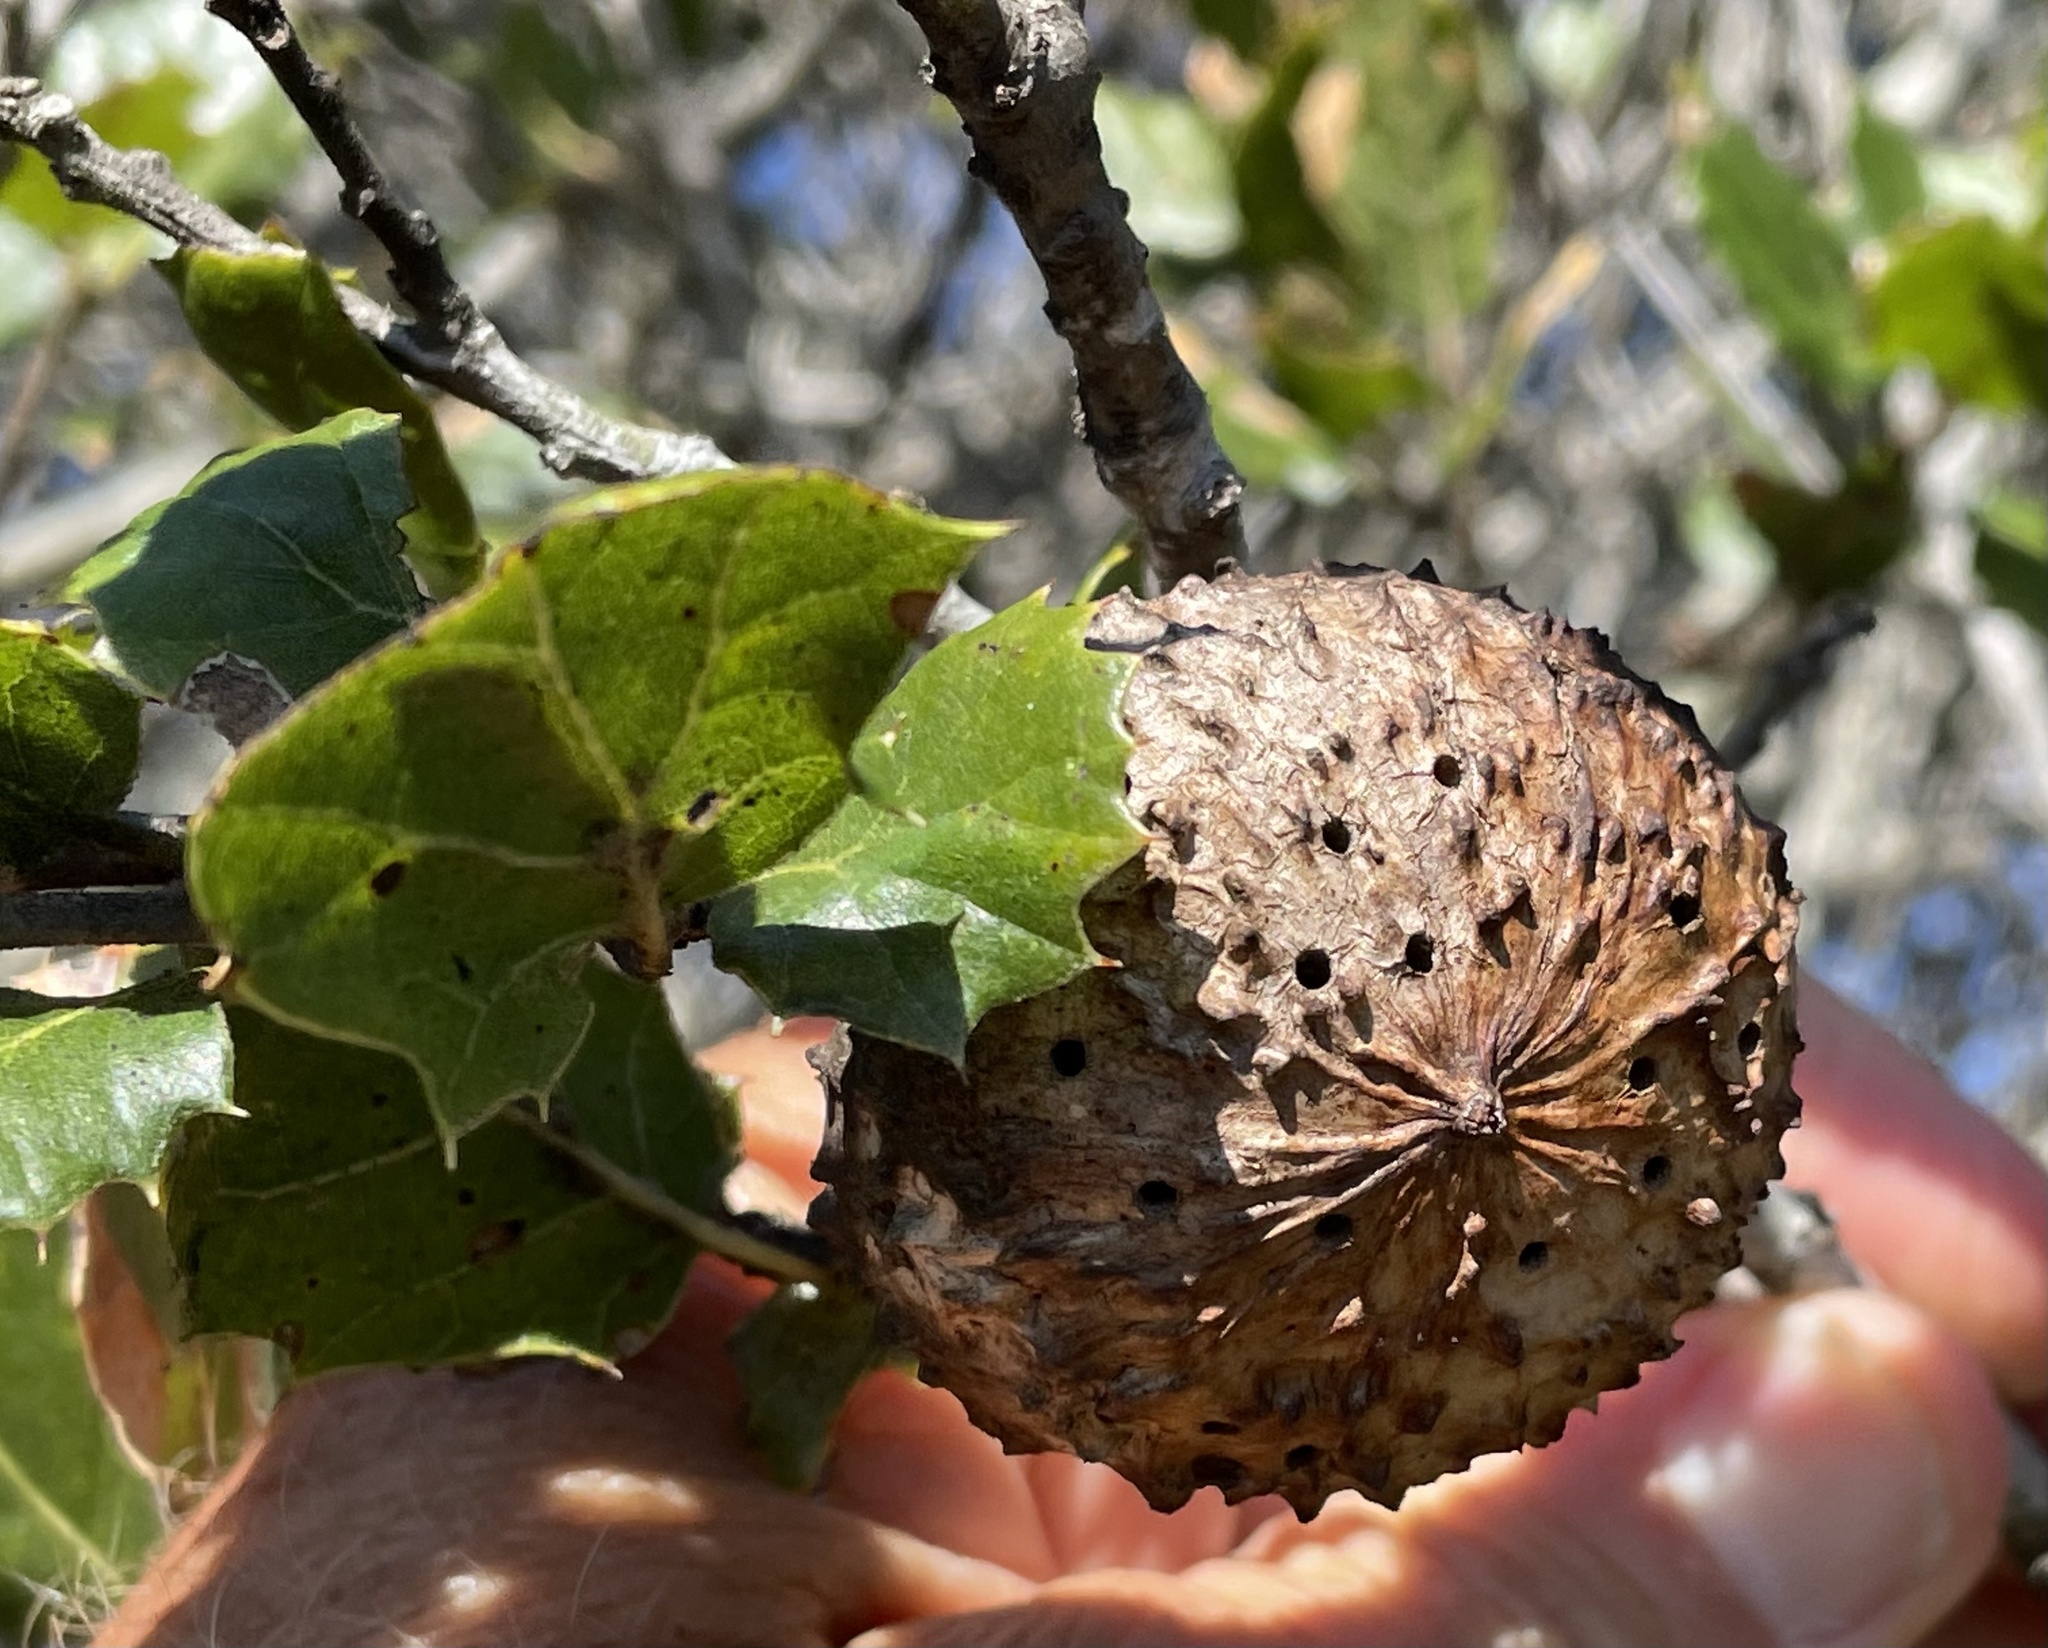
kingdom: Animalia
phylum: Arthropoda
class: Insecta
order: Hymenoptera
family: Cynipidae
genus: Amphibolips
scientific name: Amphibolips quercuspomiformis
